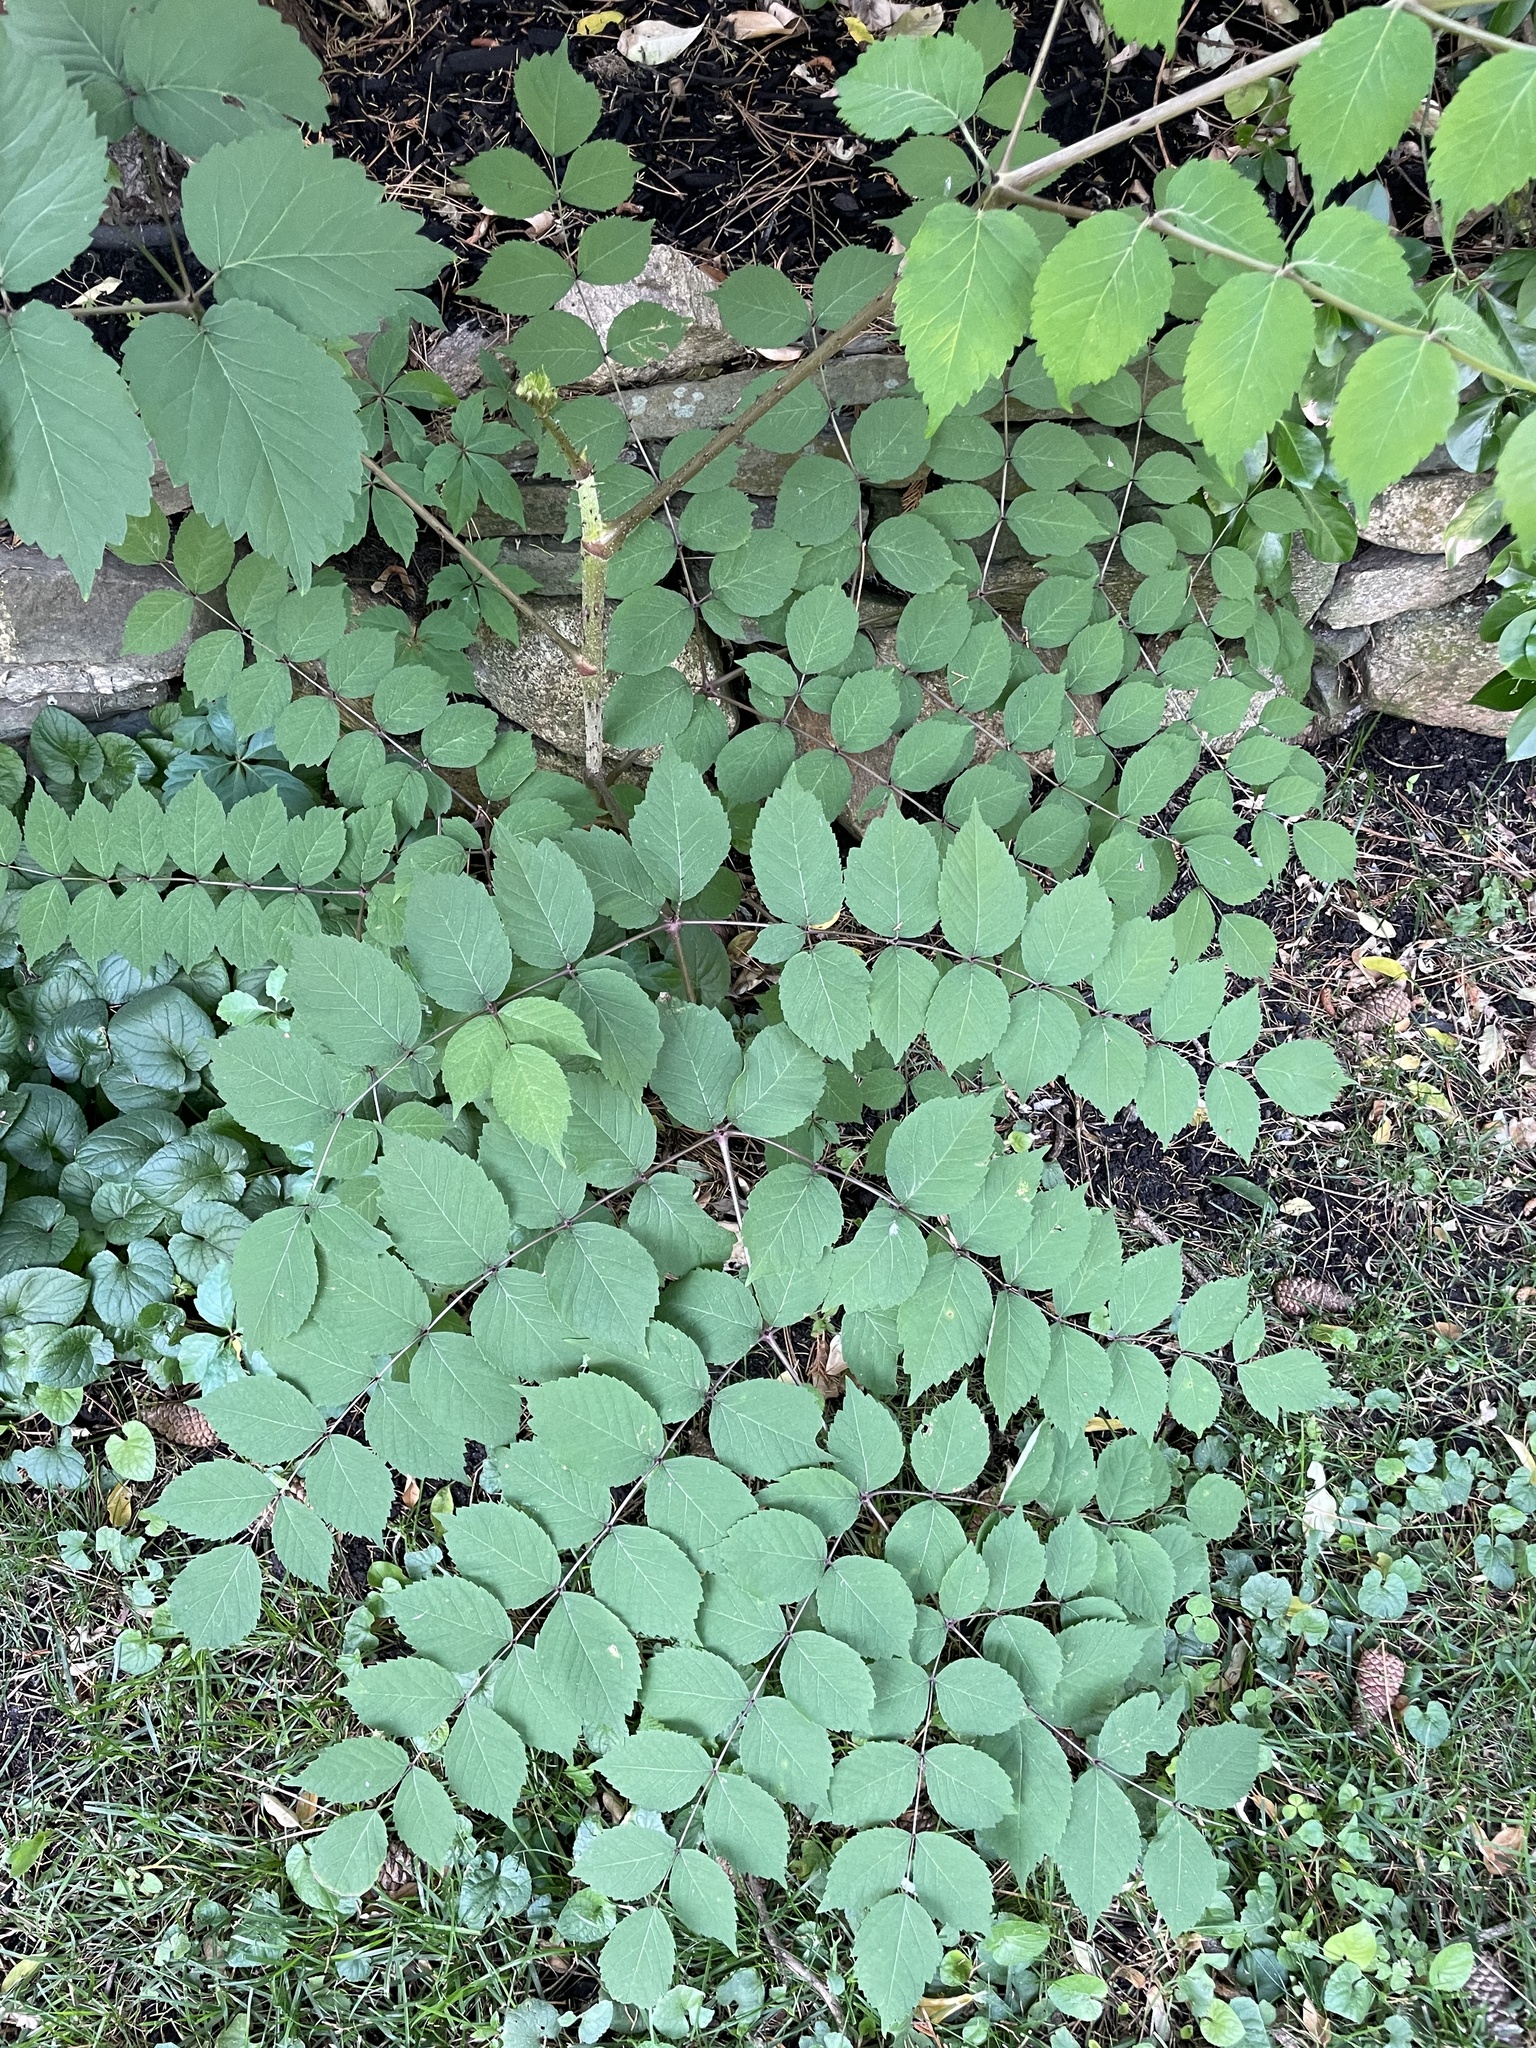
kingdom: Plantae
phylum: Tracheophyta
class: Magnoliopsida
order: Apiales
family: Araliaceae
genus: Aralia
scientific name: Aralia elata
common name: Japanese angelica-tree
